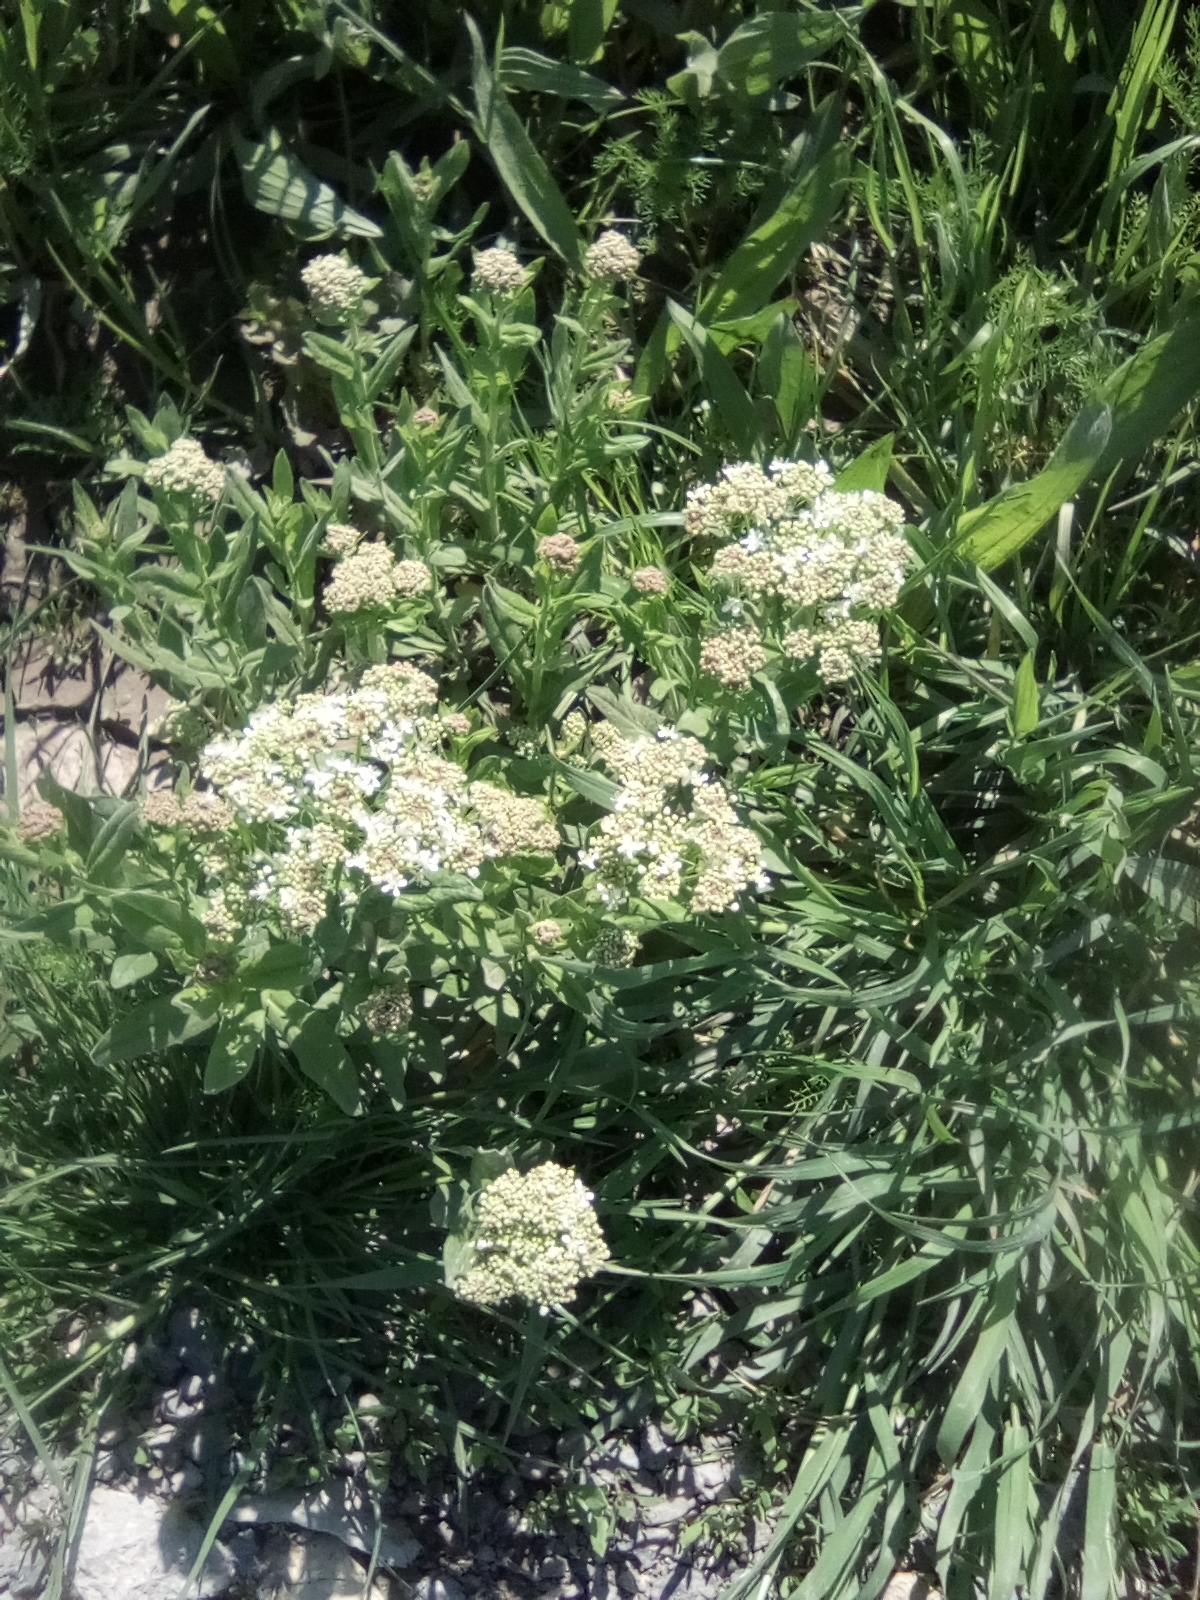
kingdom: Plantae
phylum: Tracheophyta
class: Magnoliopsida
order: Brassicales
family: Brassicaceae
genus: Lepidium
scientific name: Lepidium draba
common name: Hoary cress
